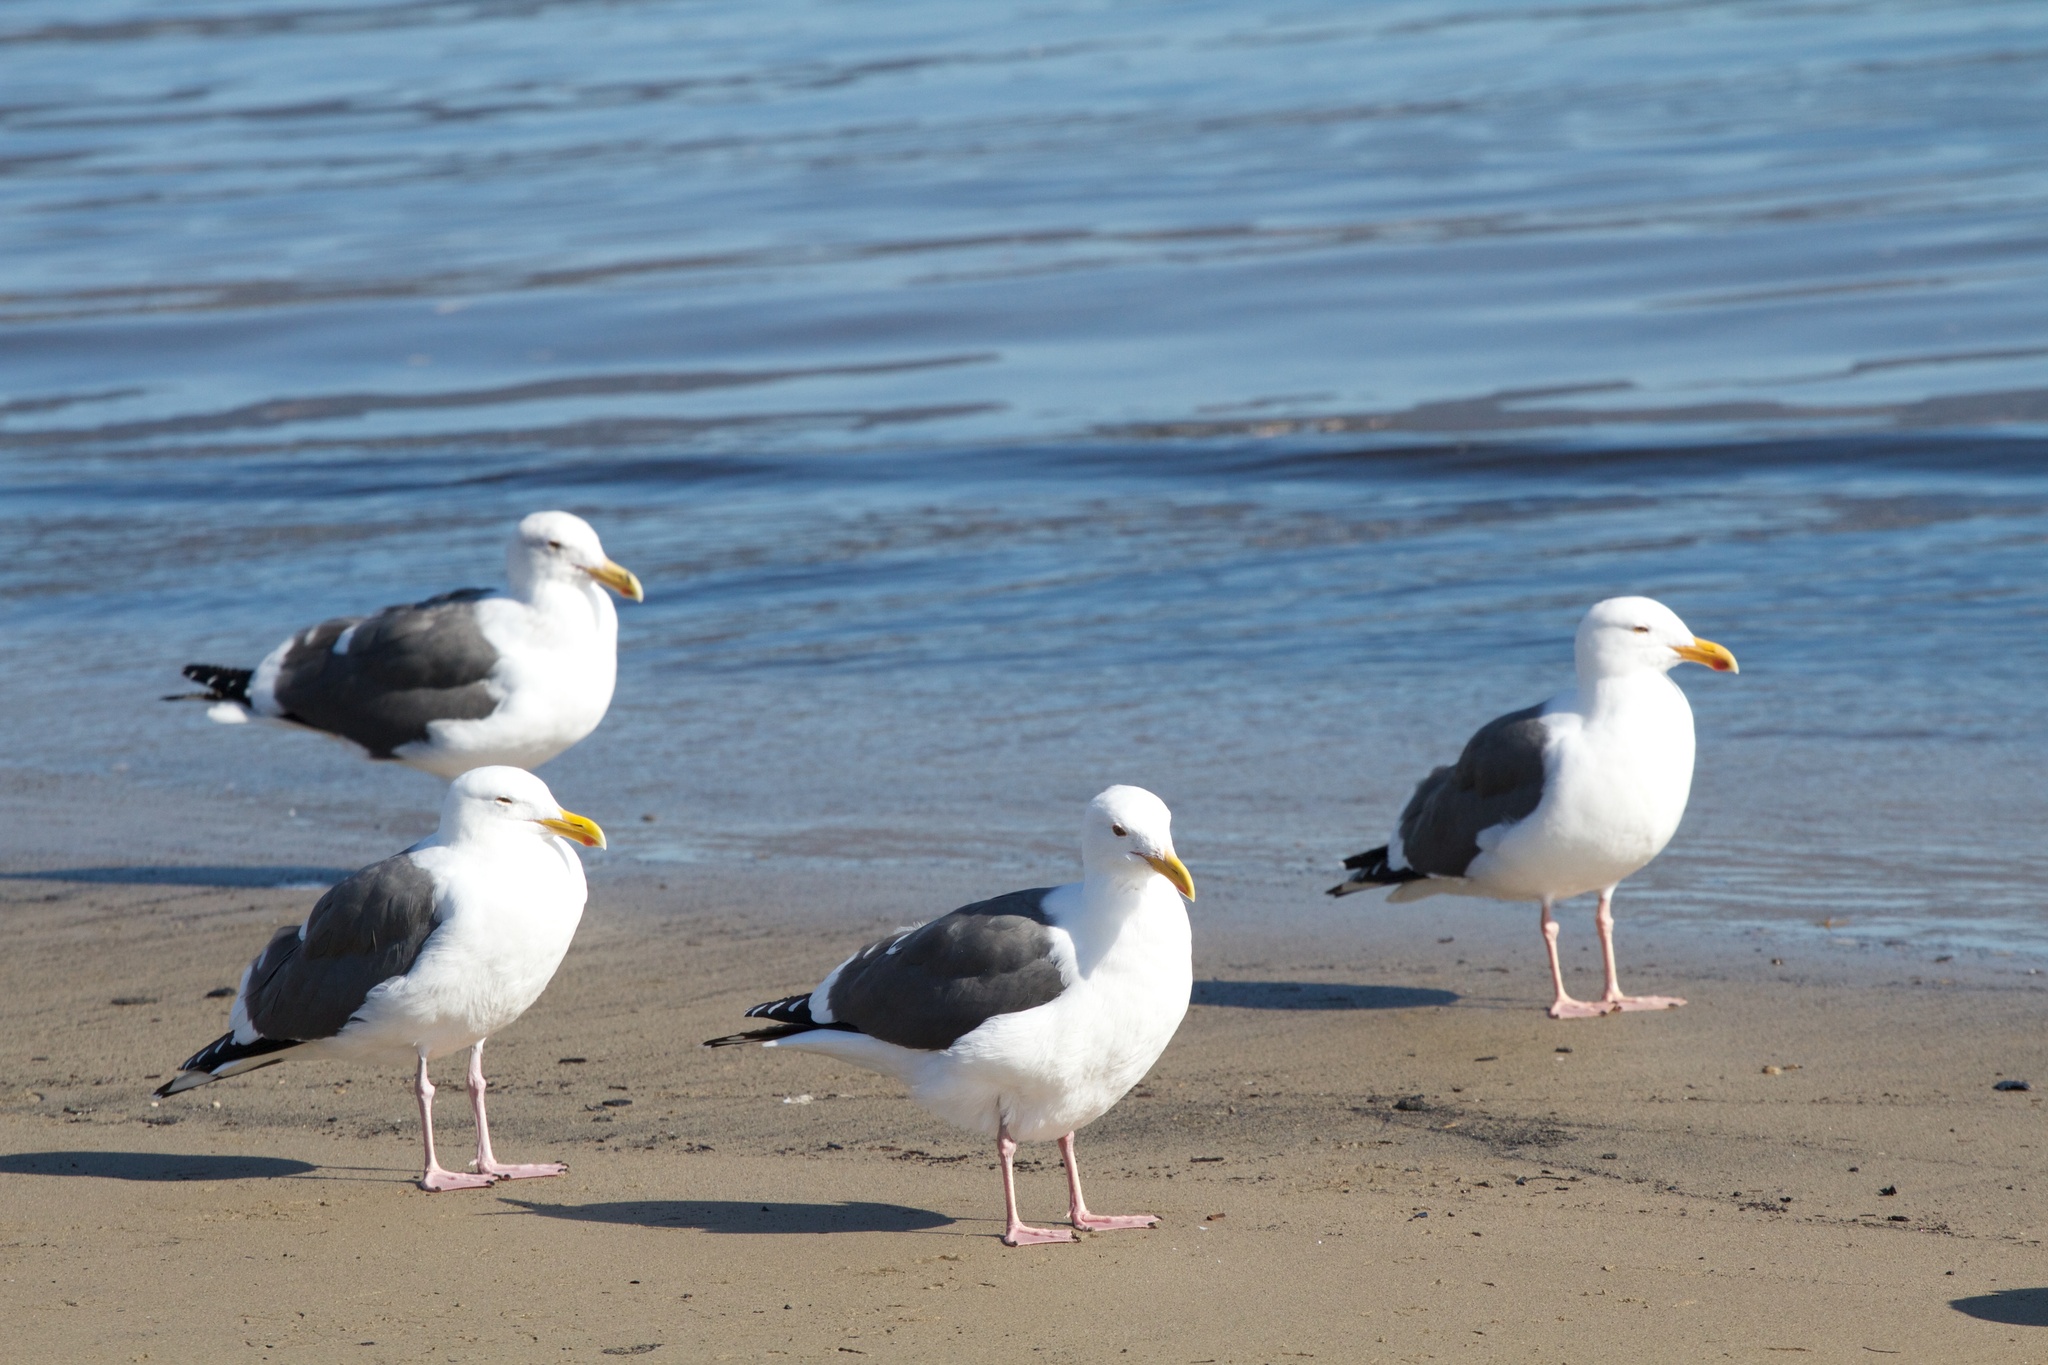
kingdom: Animalia
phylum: Chordata
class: Aves
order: Charadriiformes
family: Laridae
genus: Larus
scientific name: Larus occidentalis
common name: Western gull
